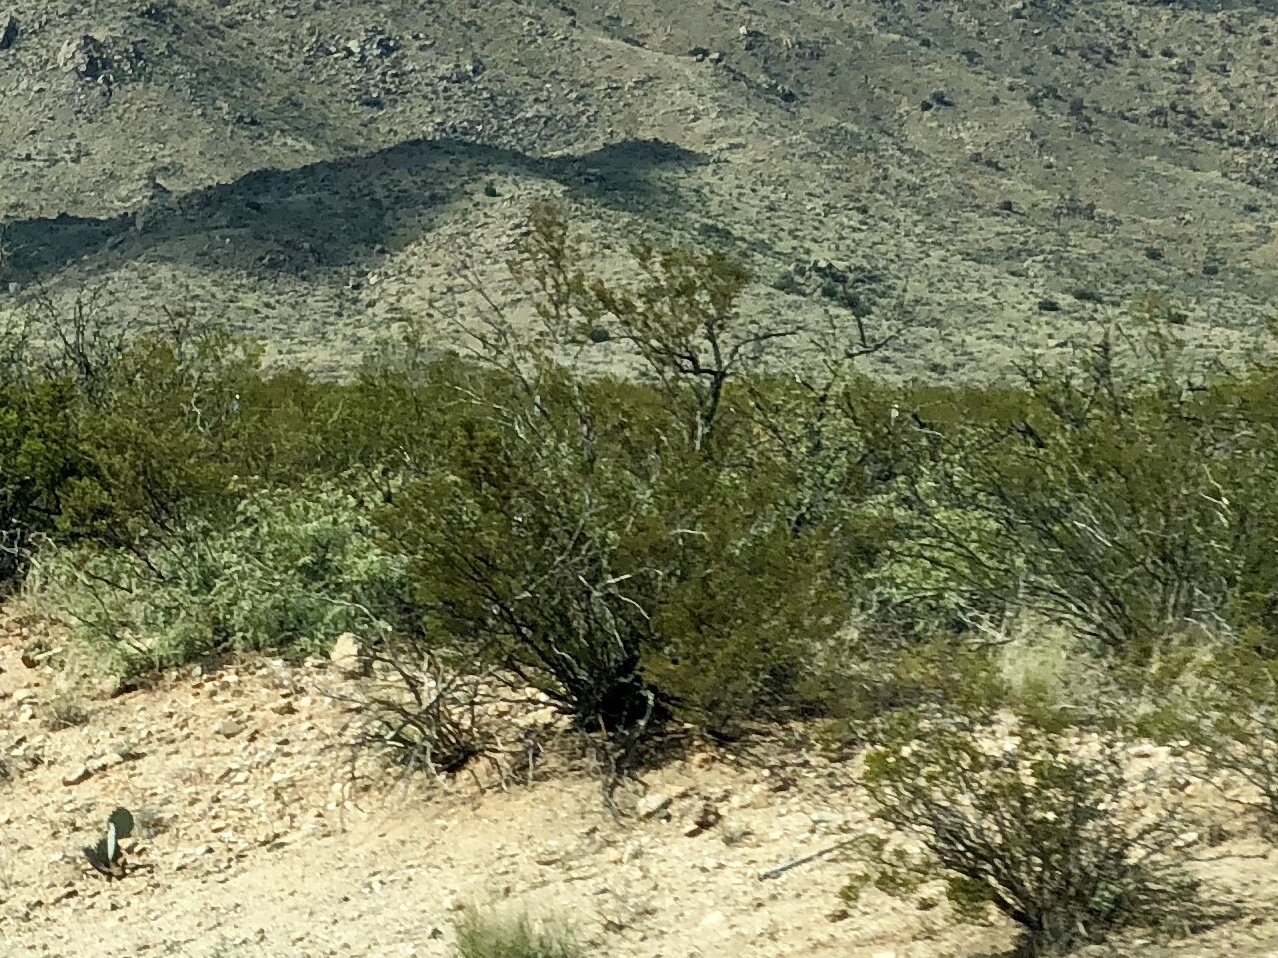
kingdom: Plantae
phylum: Tracheophyta
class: Magnoliopsida
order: Zygophyllales
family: Zygophyllaceae
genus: Larrea
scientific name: Larrea tridentata
